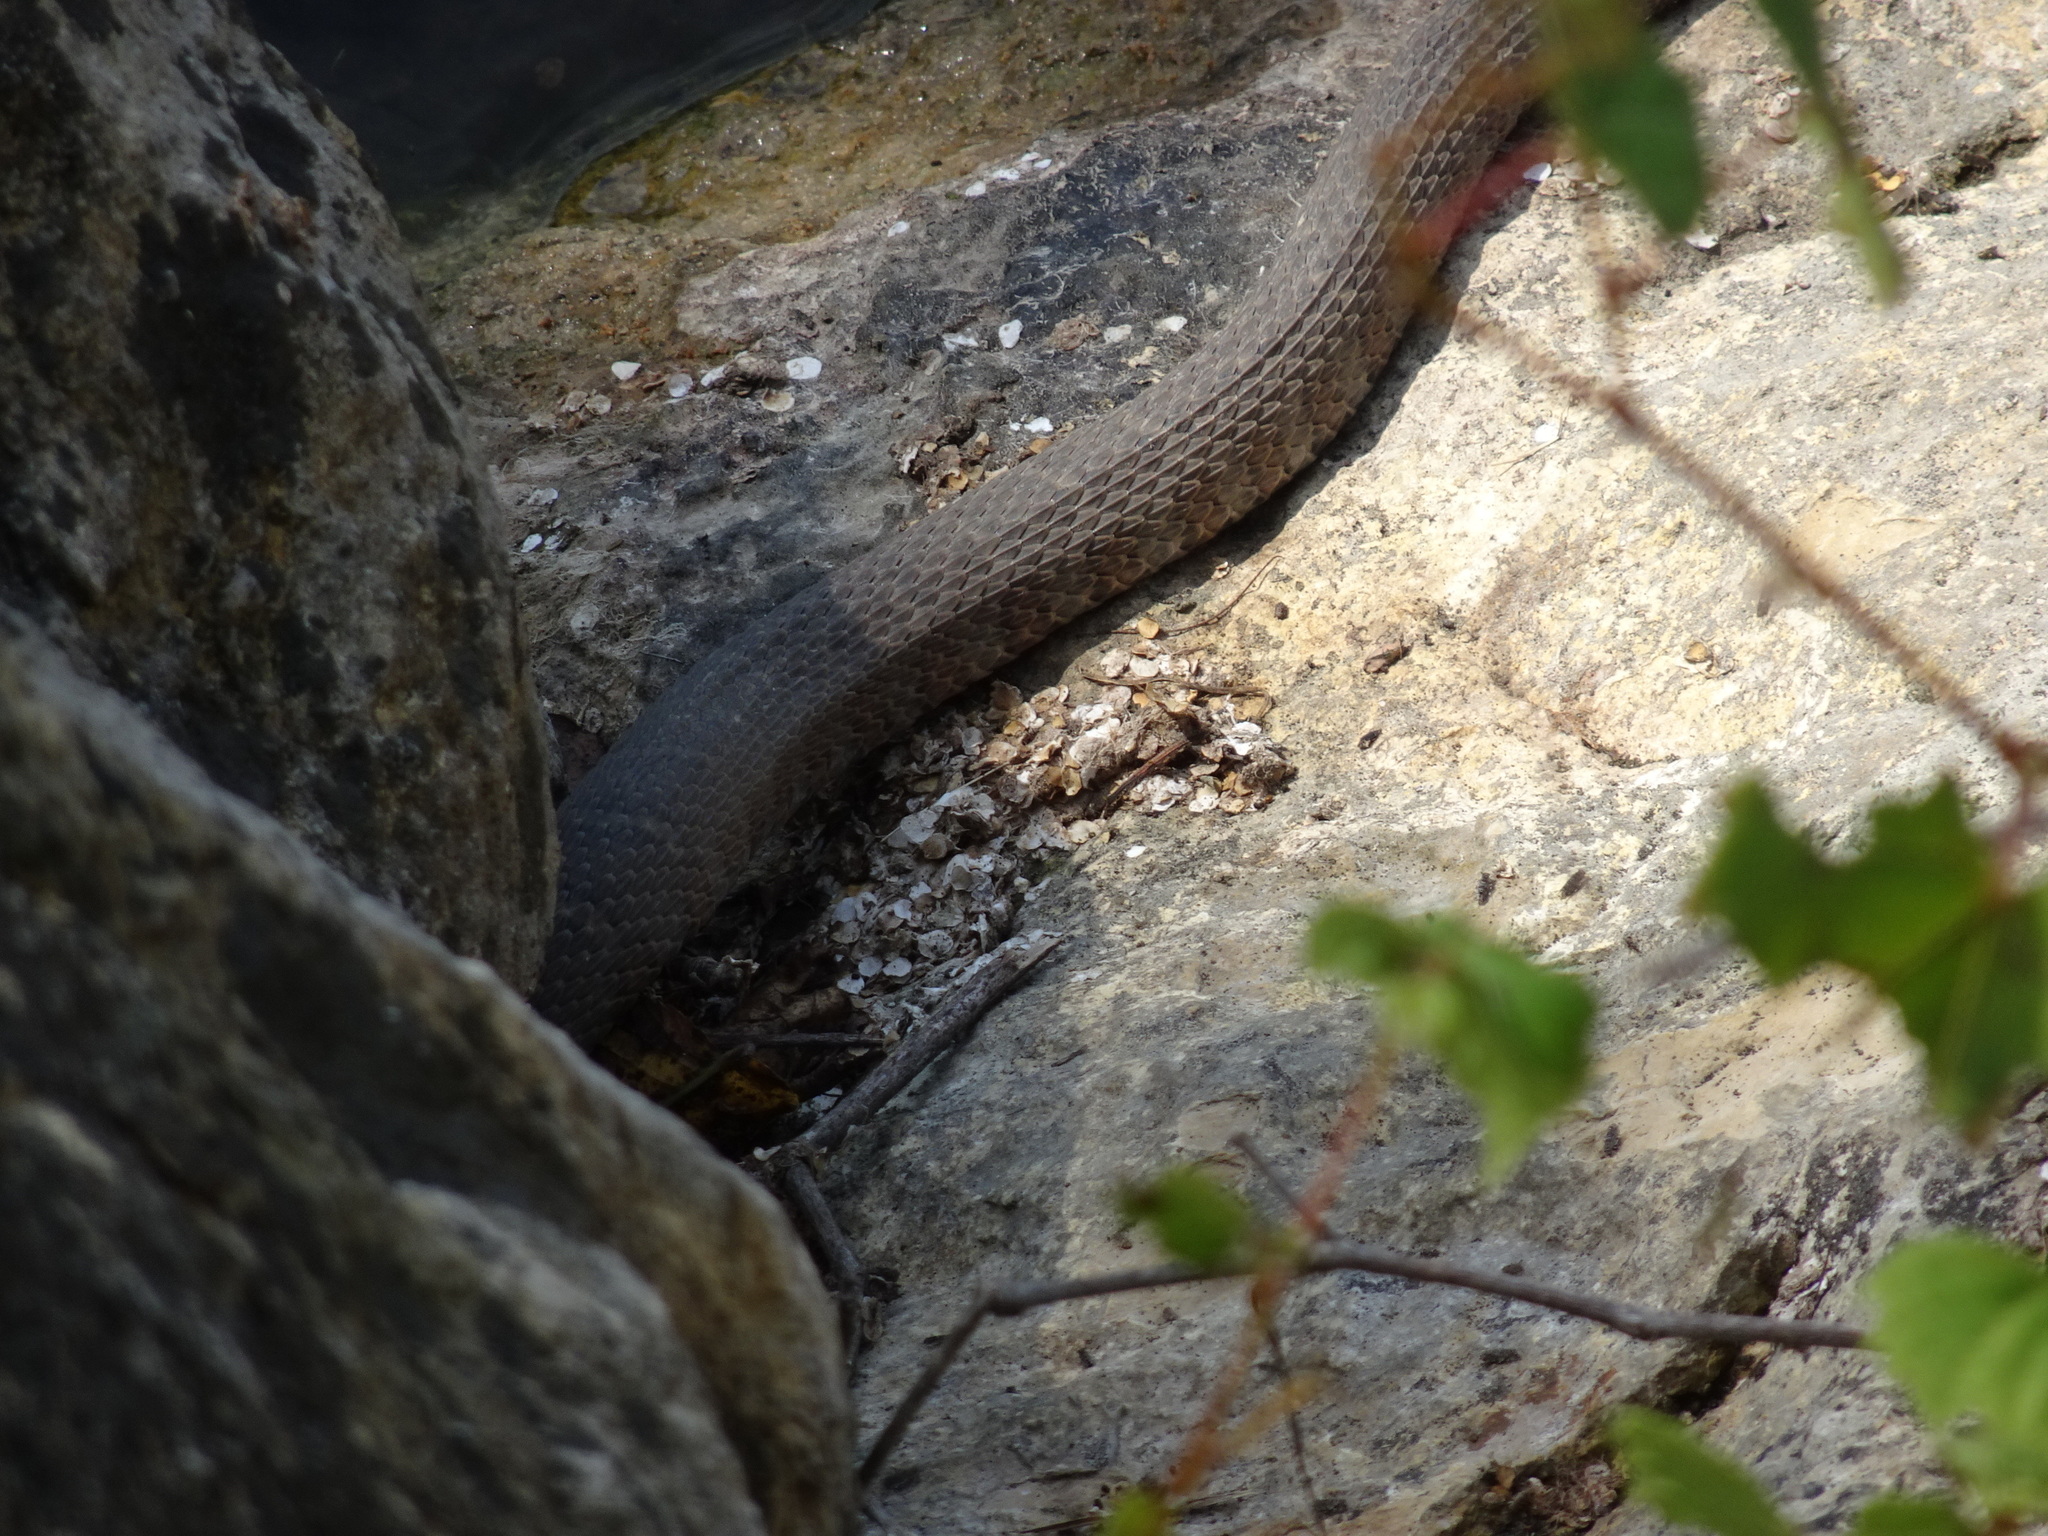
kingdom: Animalia
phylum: Chordata
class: Squamata
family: Colubridae
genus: Nerodia
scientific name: Nerodia sipedon
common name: Northern water snake
